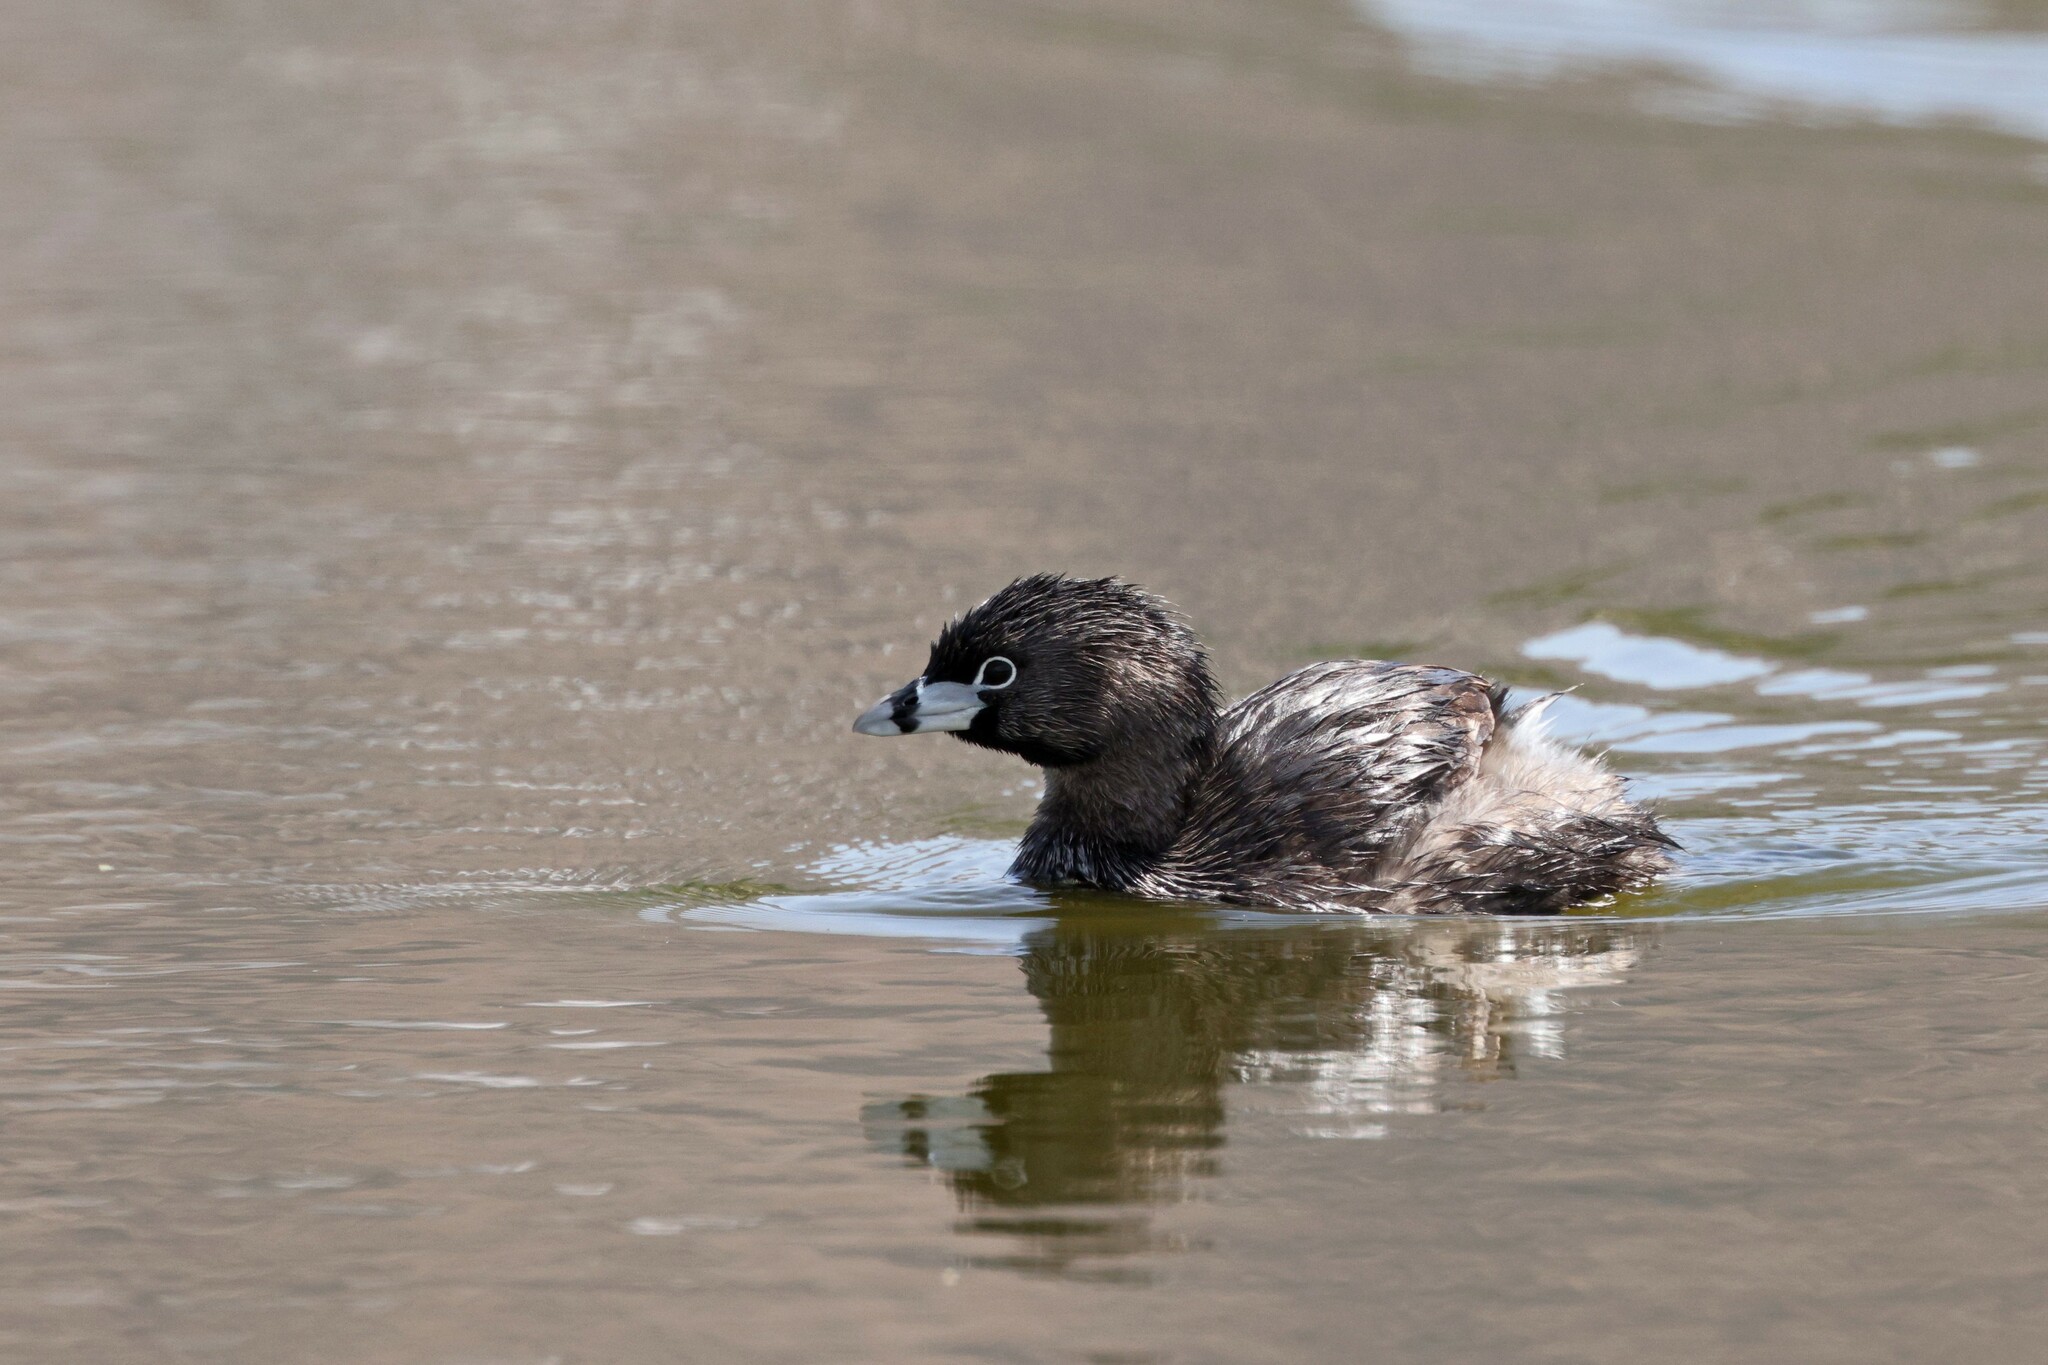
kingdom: Animalia
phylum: Chordata
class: Aves
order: Podicipediformes
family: Podicipedidae
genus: Podilymbus
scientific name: Podilymbus podiceps
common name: Pied-billed grebe
